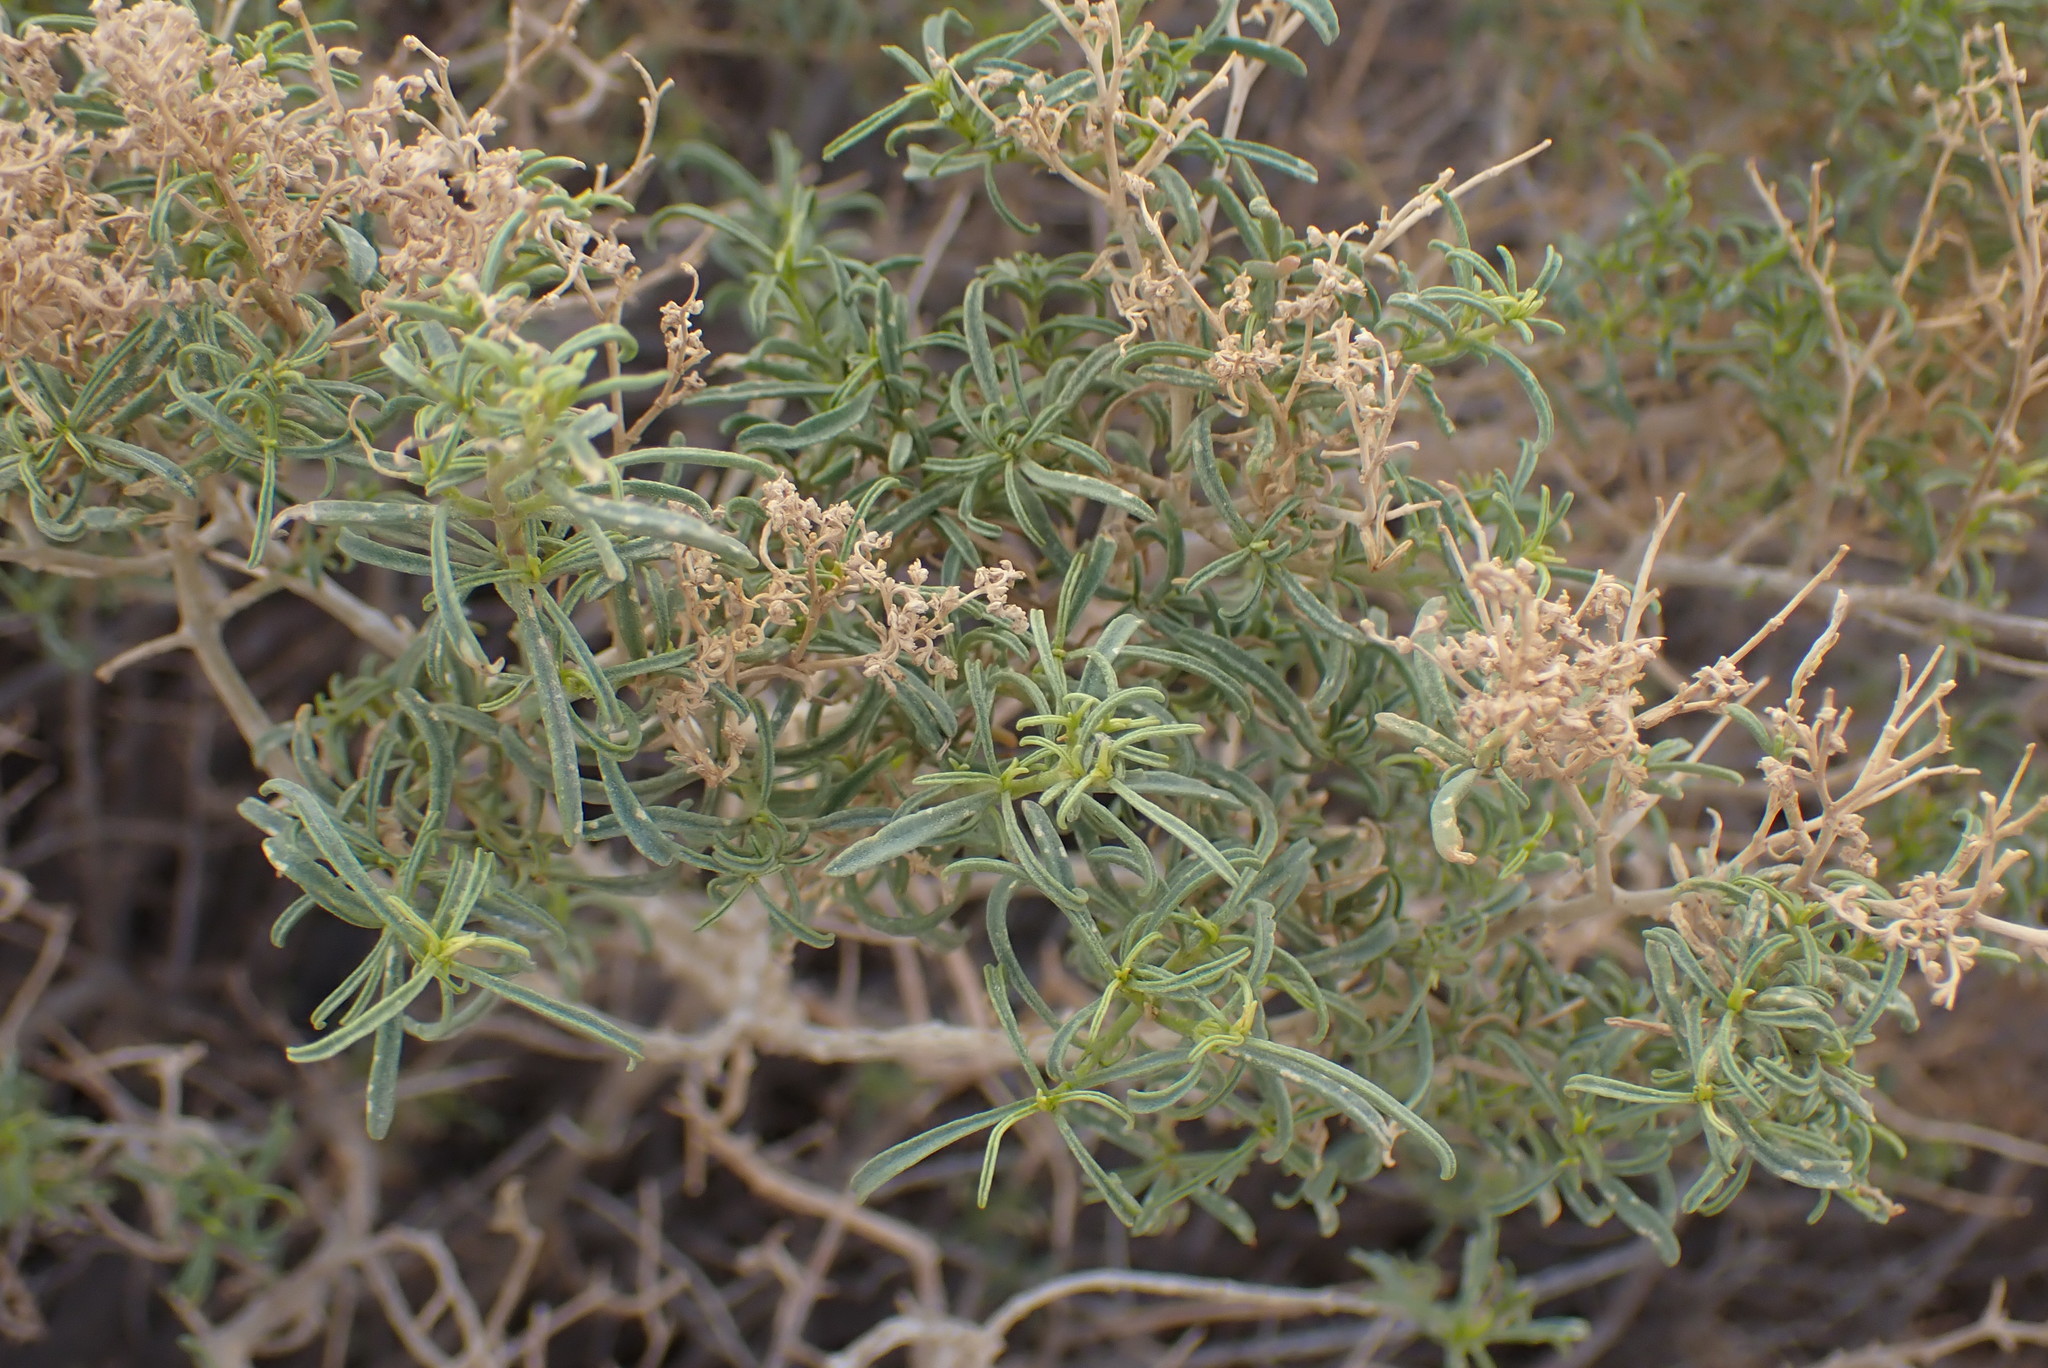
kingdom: Plantae
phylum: Tracheophyta
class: Magnoliopsida
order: Caryophyllales
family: Aizoaceae
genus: Aizoon
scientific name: Aizoon africanum
